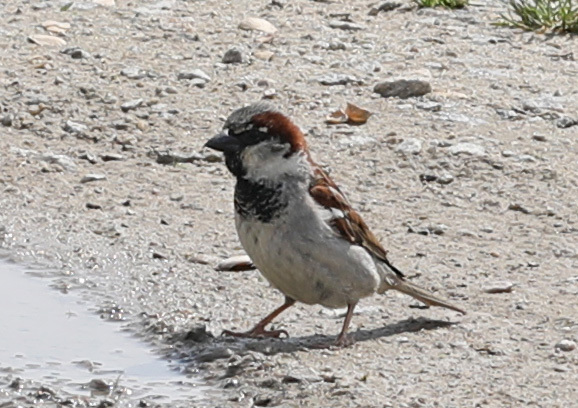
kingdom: Animalia
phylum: Chordata
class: Aves
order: Passeriformes
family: Passeridae
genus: Passer
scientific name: Passer domesticus
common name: House sparrow
